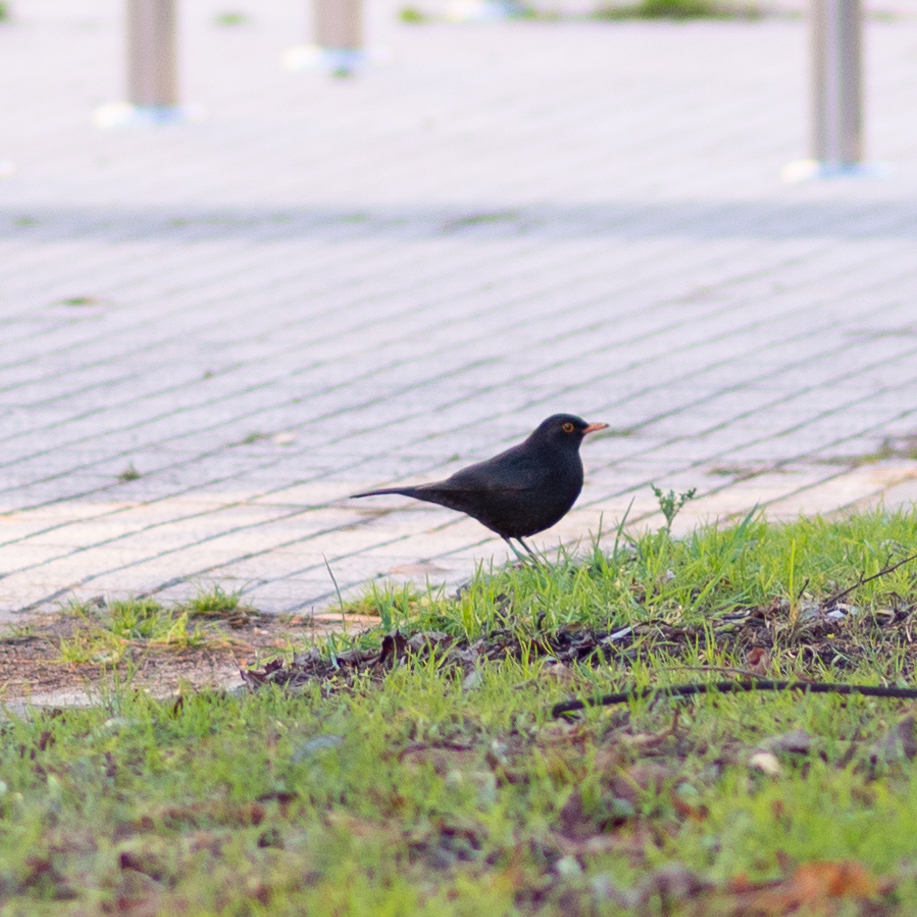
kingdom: Animalia
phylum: Chordata
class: Aves
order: Passeriformes
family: Turdidae
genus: Turdus
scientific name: Turdus merula
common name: Common blackbird
